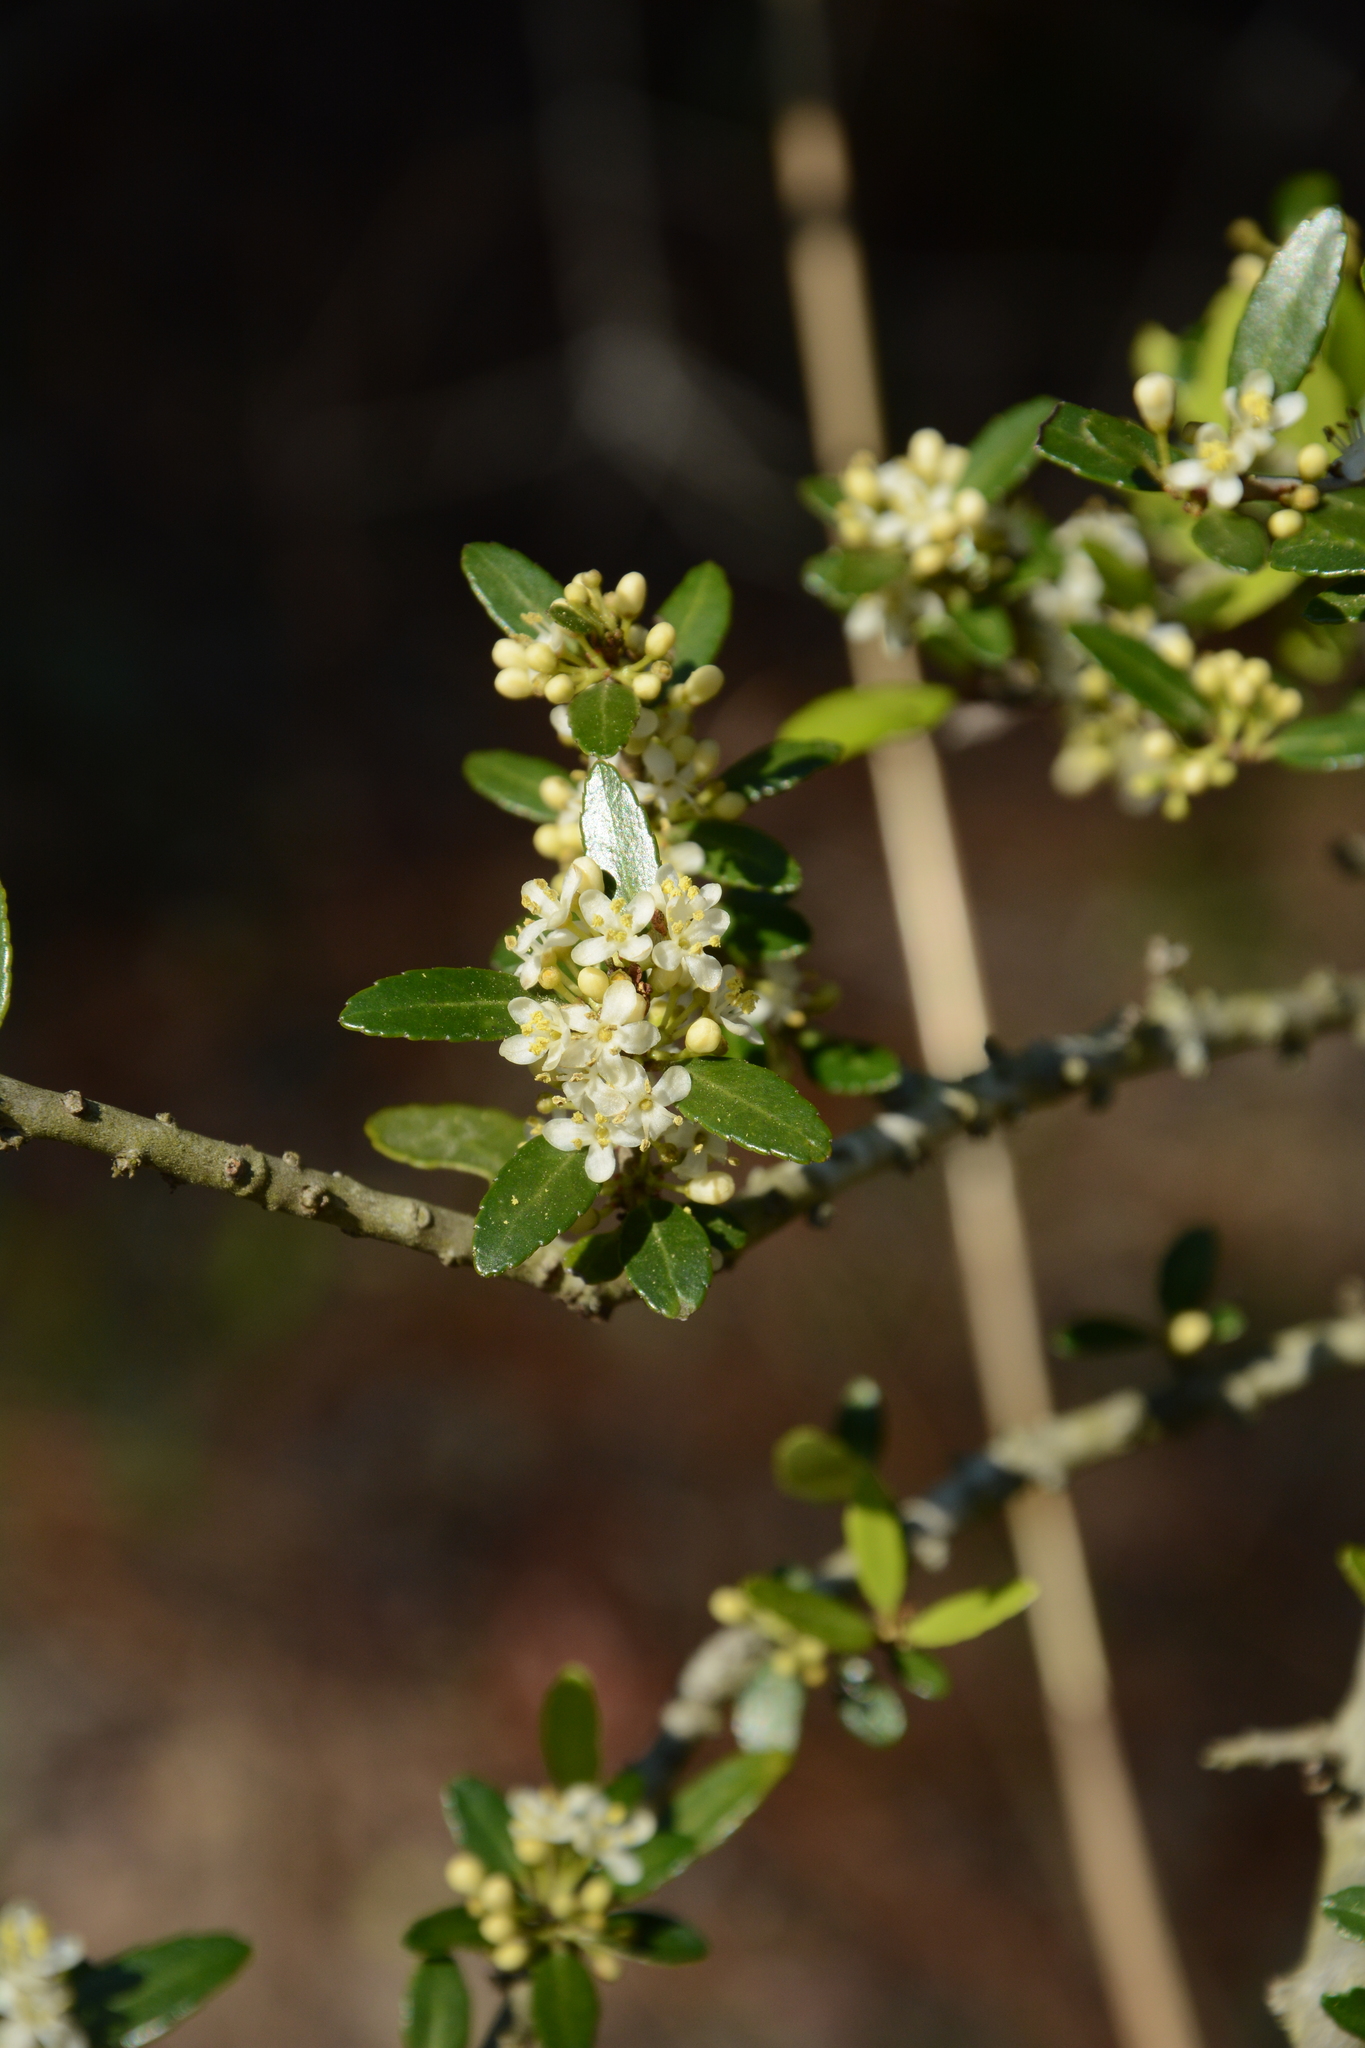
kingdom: Plantae
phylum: Tracheophyta
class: Magnoliopsida
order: Aquifoliales
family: Aquifoliaceae
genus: Ilex
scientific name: Ilex vomitoria
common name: Yaupon holly
